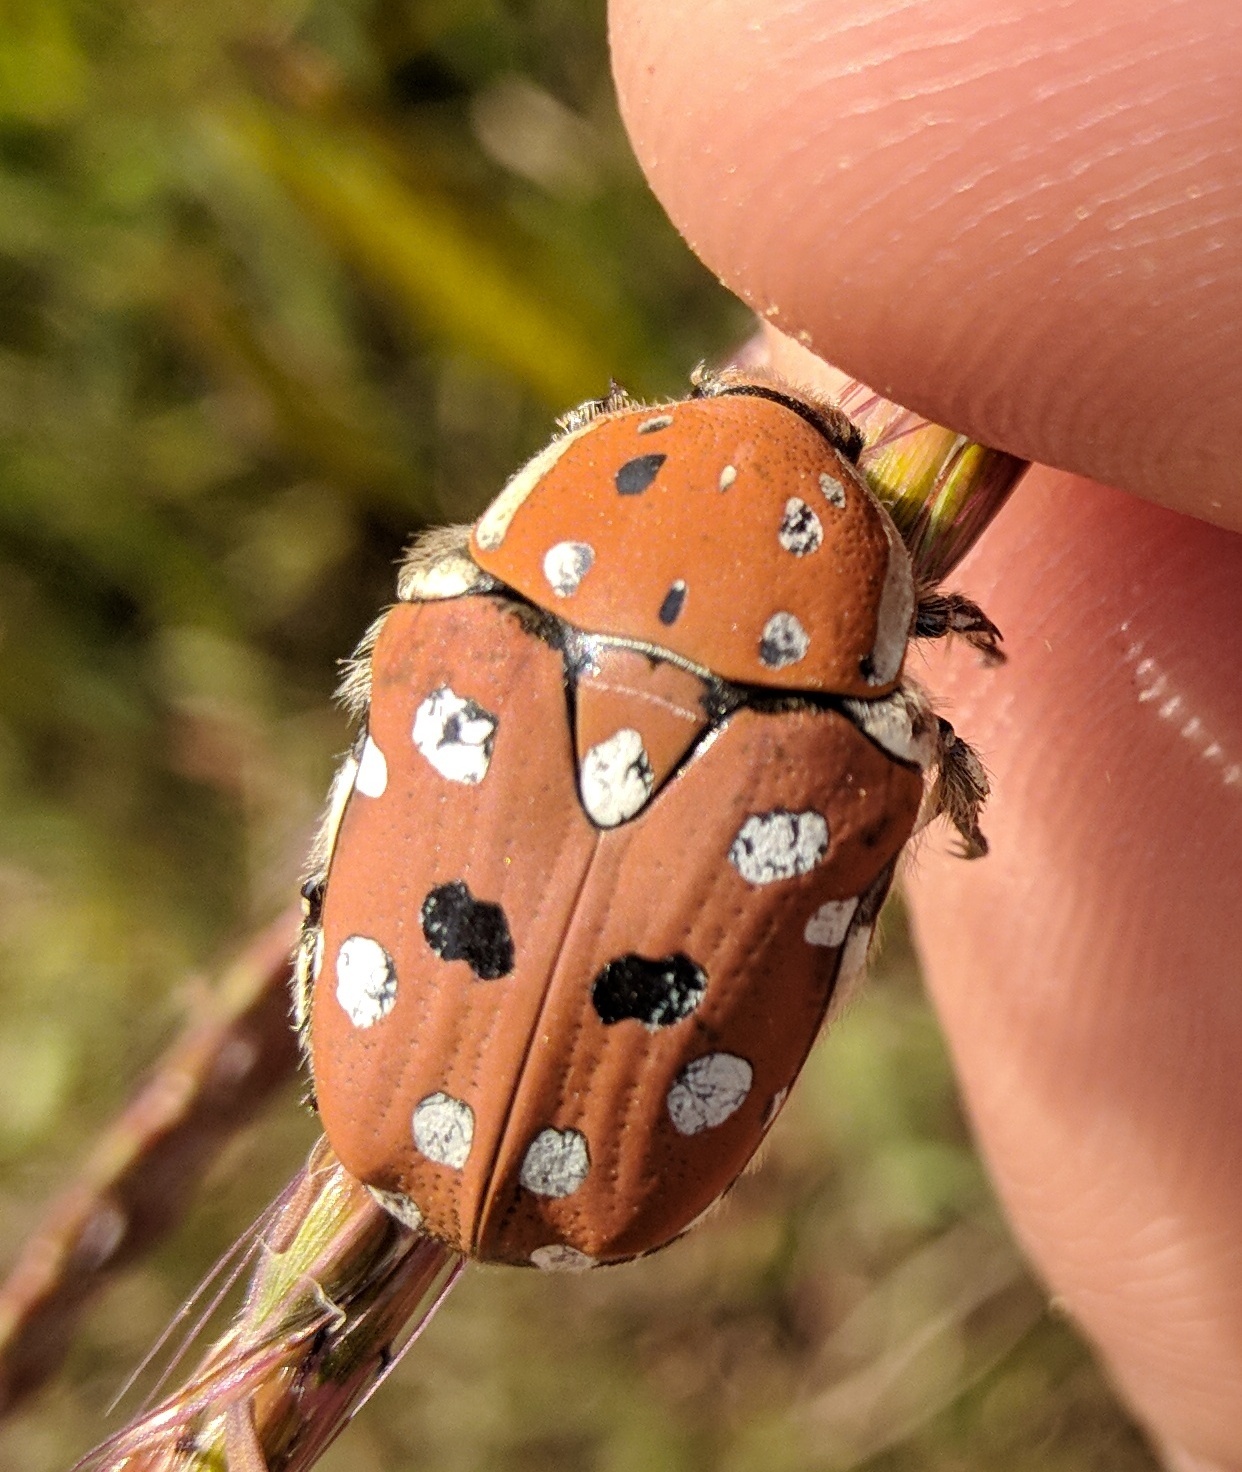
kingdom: Animalia
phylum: Arthropoda
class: Insecta
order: Coleoptera
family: Scarabaeidae
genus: Anatona
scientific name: Anatona stillata
